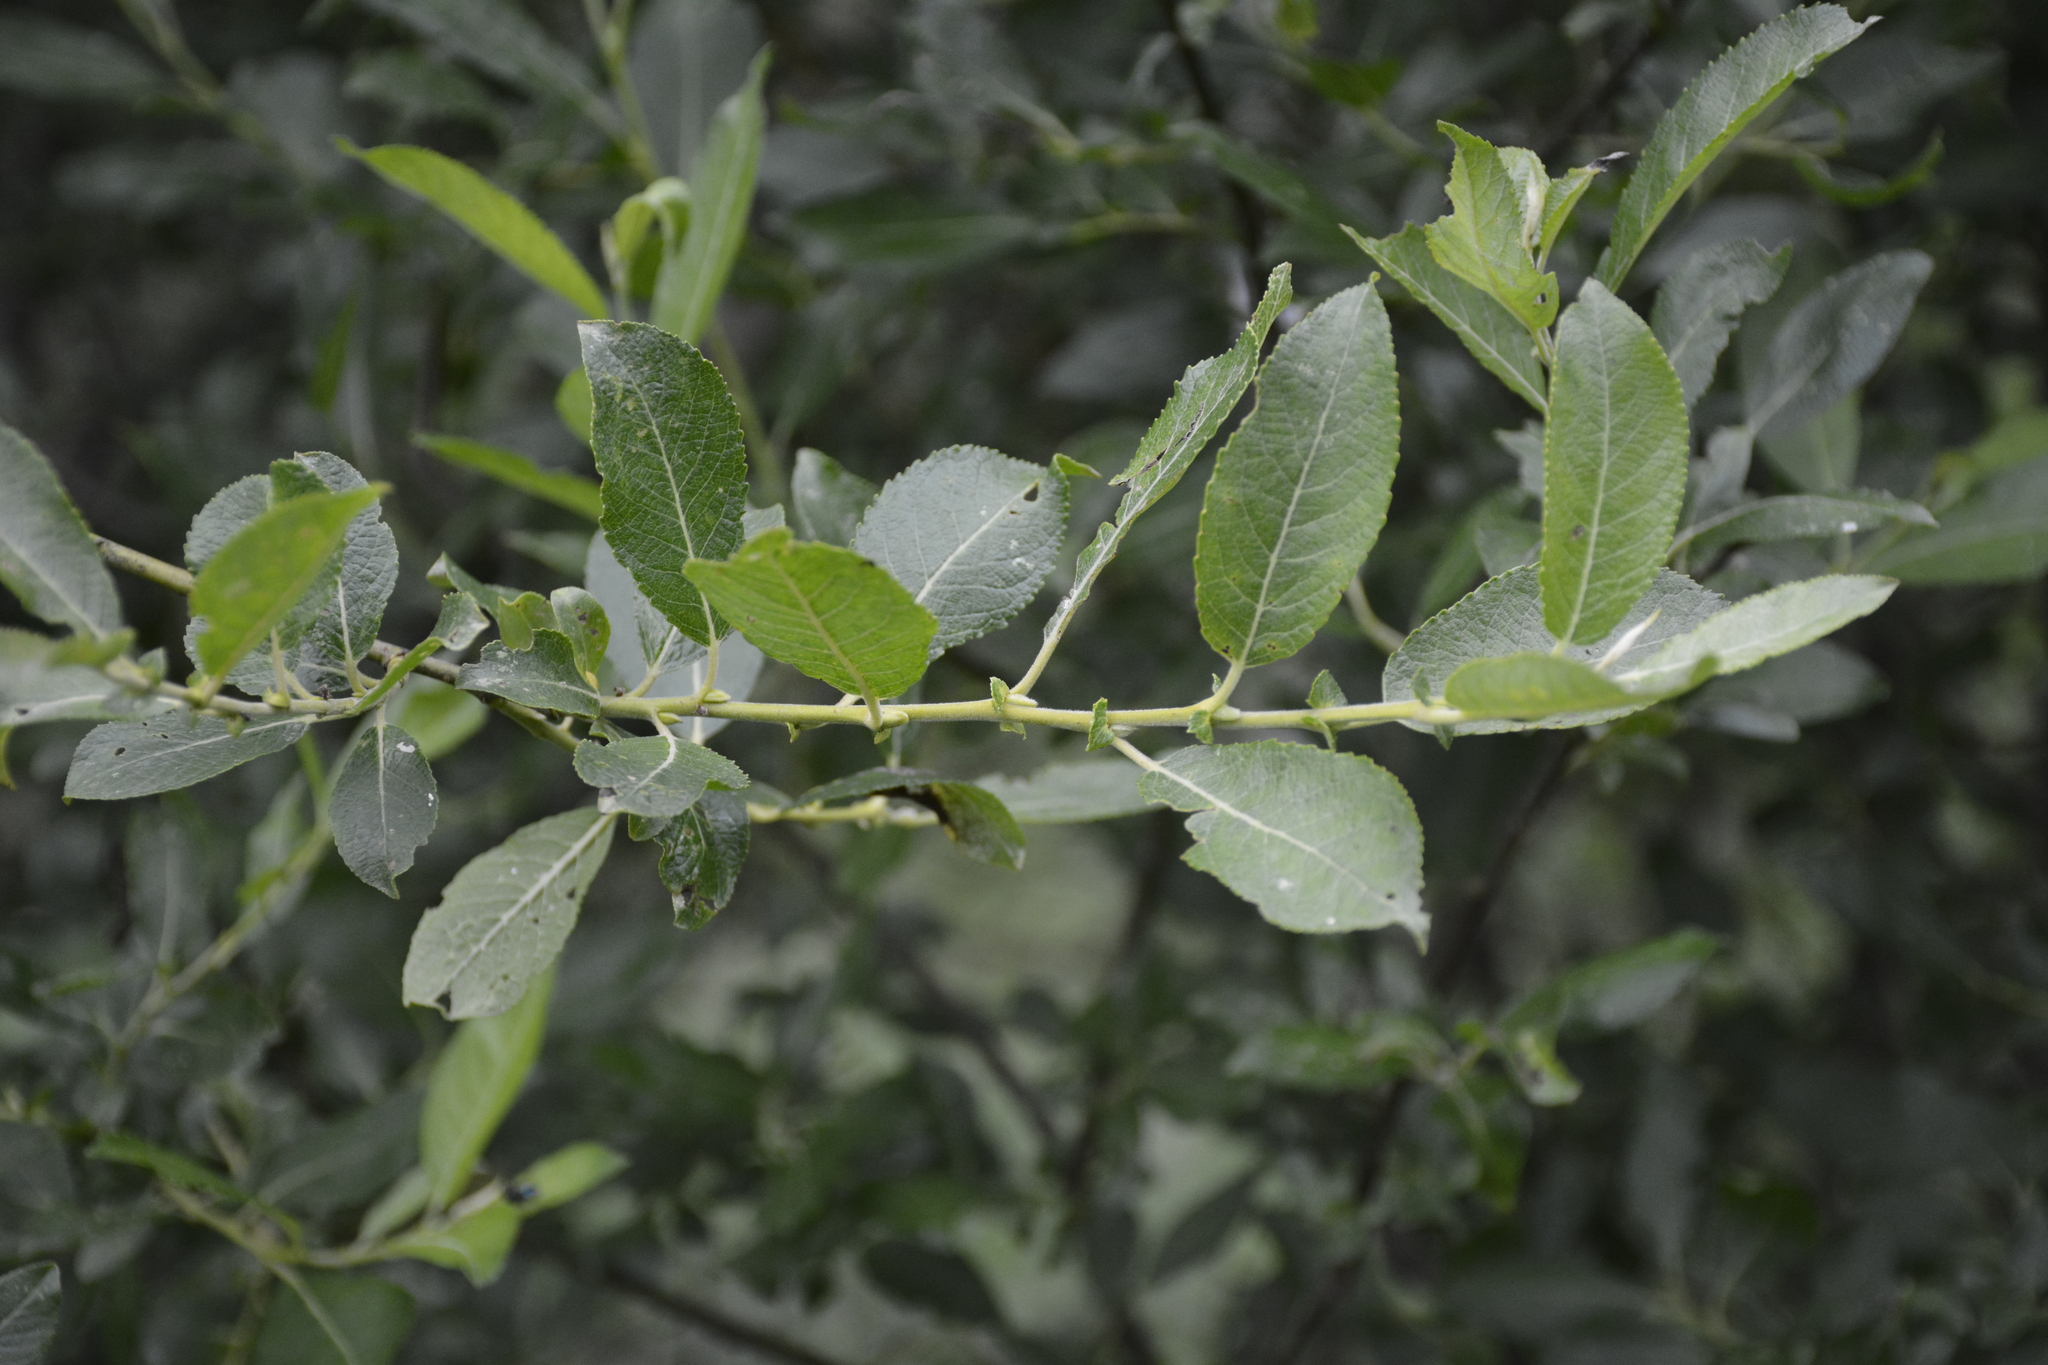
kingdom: Plantae
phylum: Tracheophyta
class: Magnoliopsida
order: Malpighiales
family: Salicaceae
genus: Salix
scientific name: Salix myrsinifolia
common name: Dark-leaved willow
